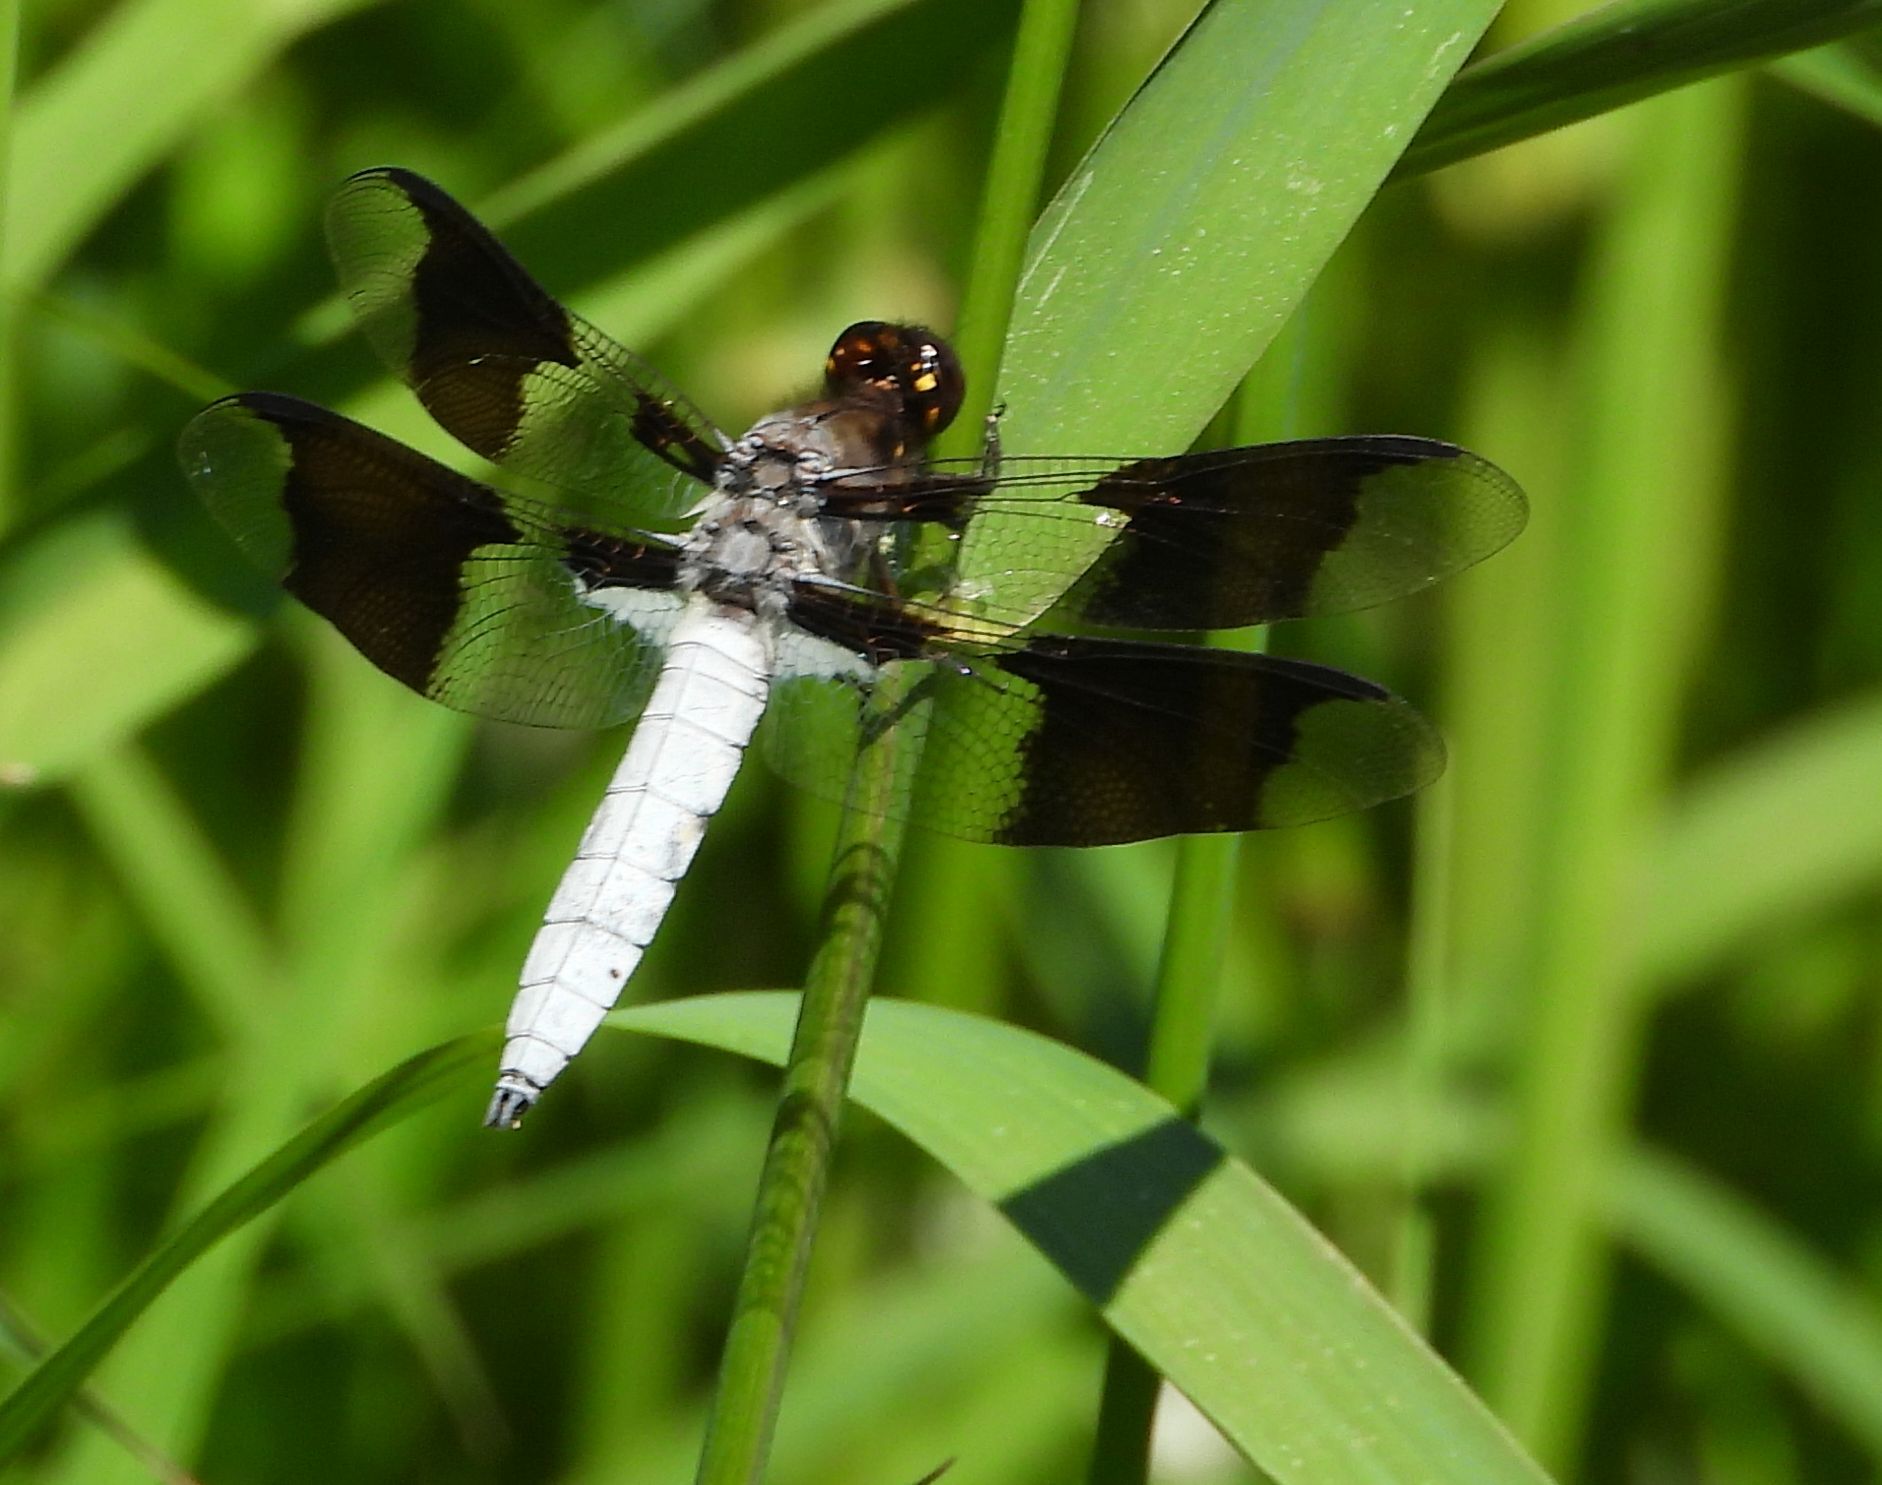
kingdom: Animalia
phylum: Arthropoda
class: Insecta
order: Odonata
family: Libellulidae
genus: Plathemis
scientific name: Plathemis lydia
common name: Common whitetail
